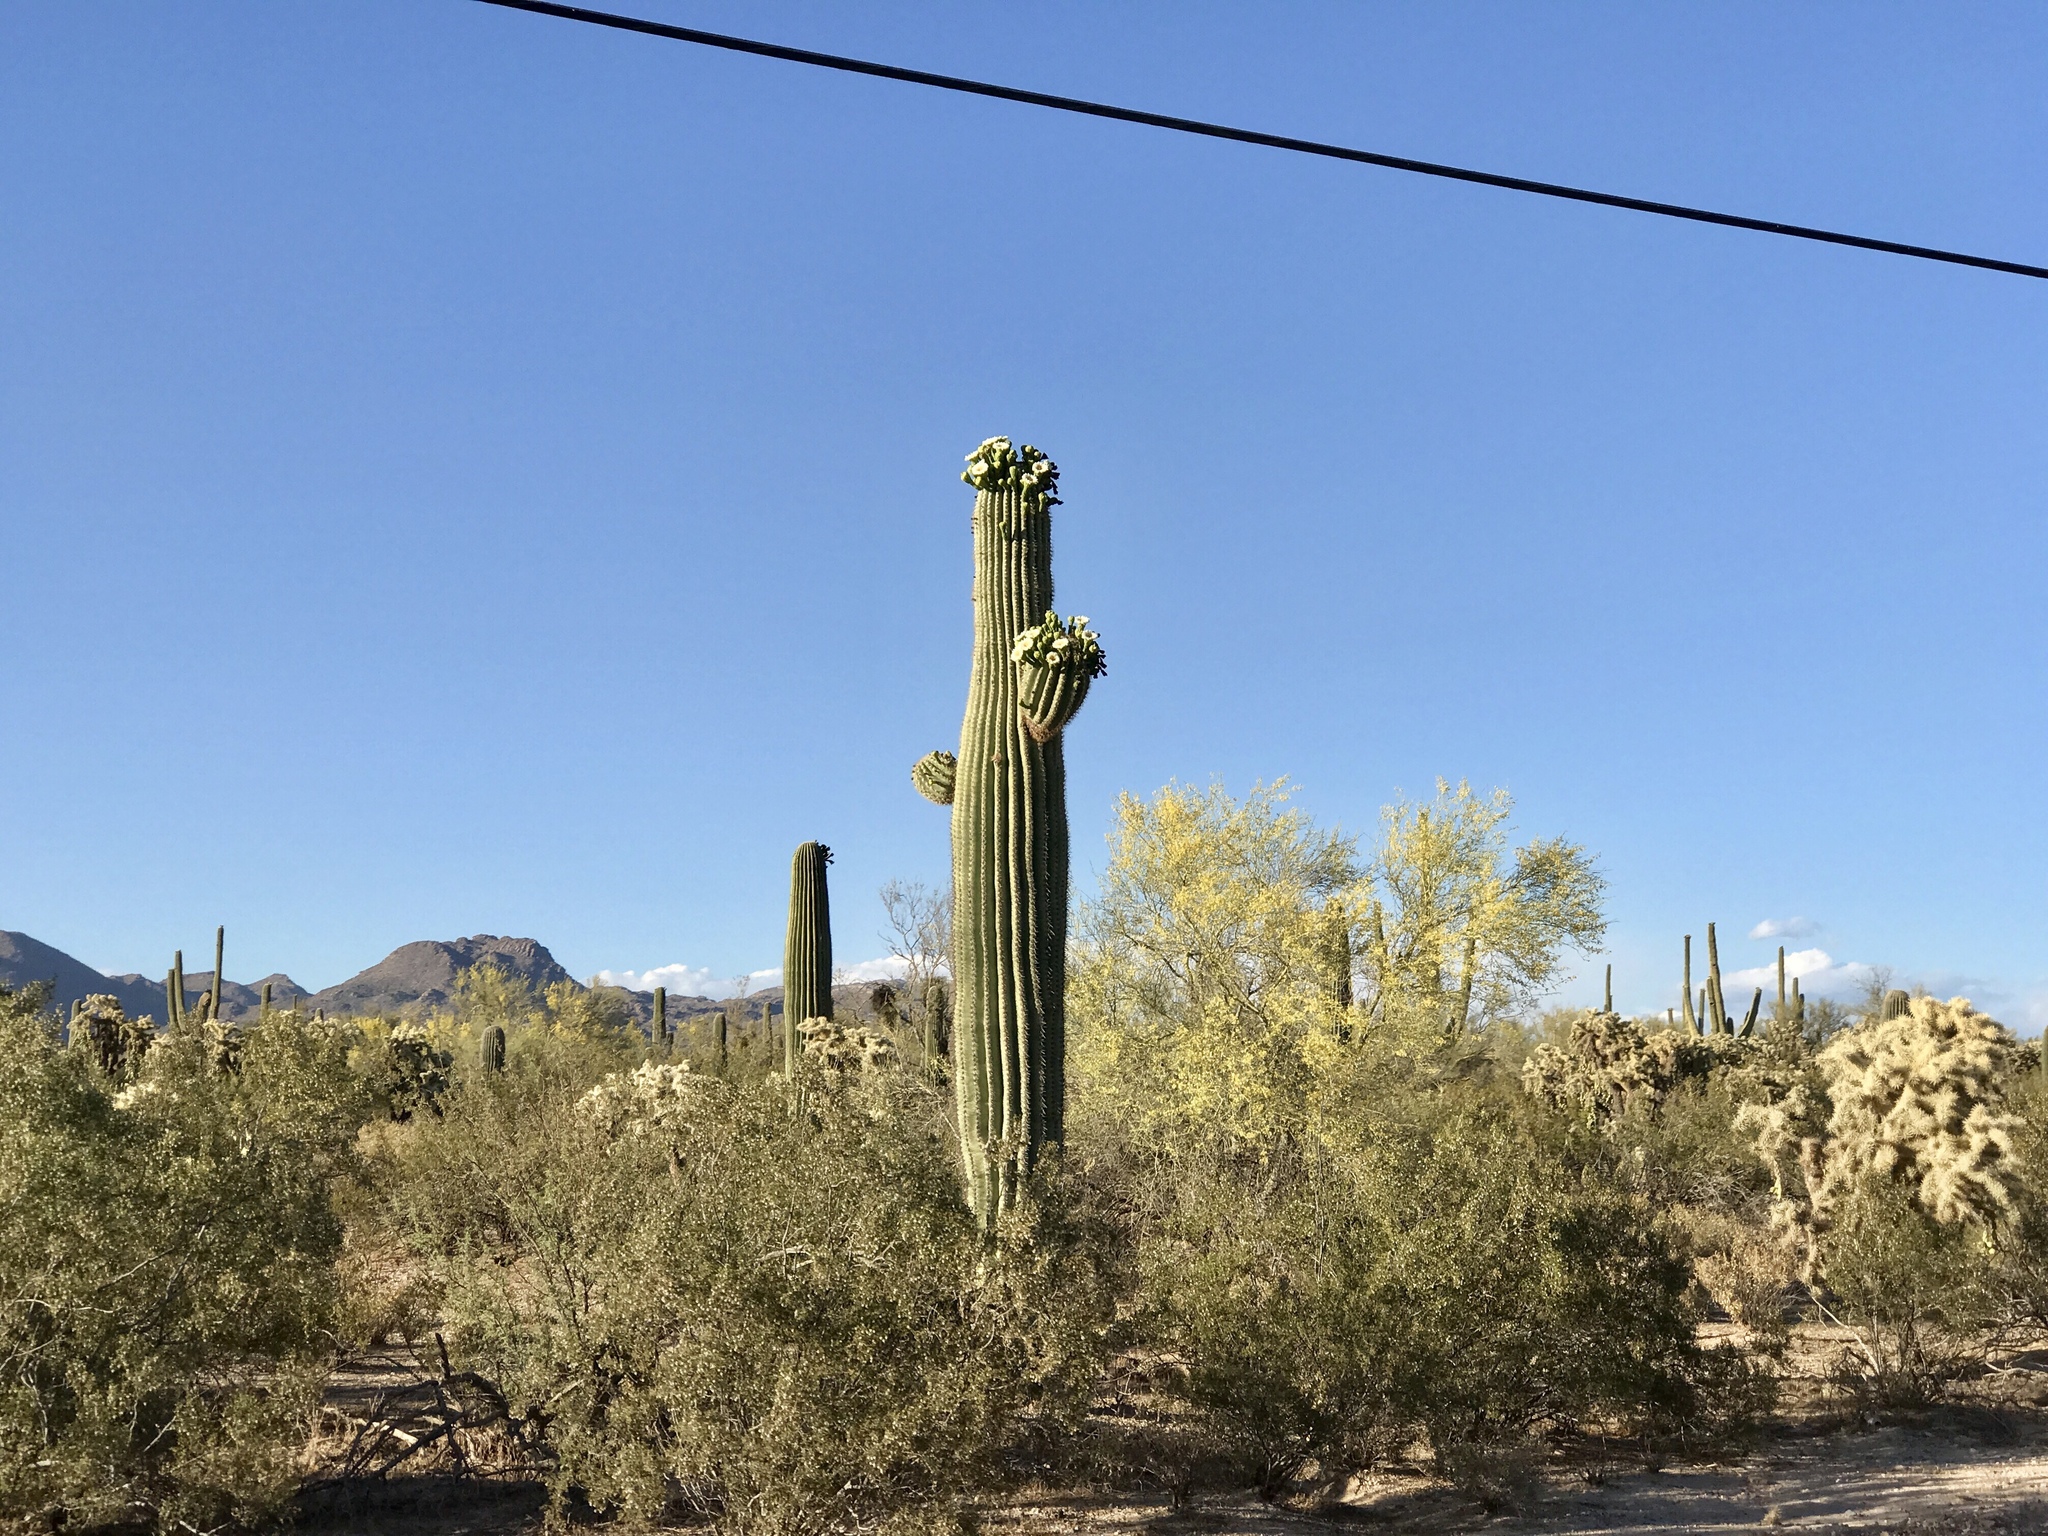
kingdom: Plantae
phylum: Tracheophyta
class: Magnoliopsida
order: Caryophyllales
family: Cactaceae
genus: Carnegiea
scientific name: Carnegiea gigantea
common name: Saguaro
